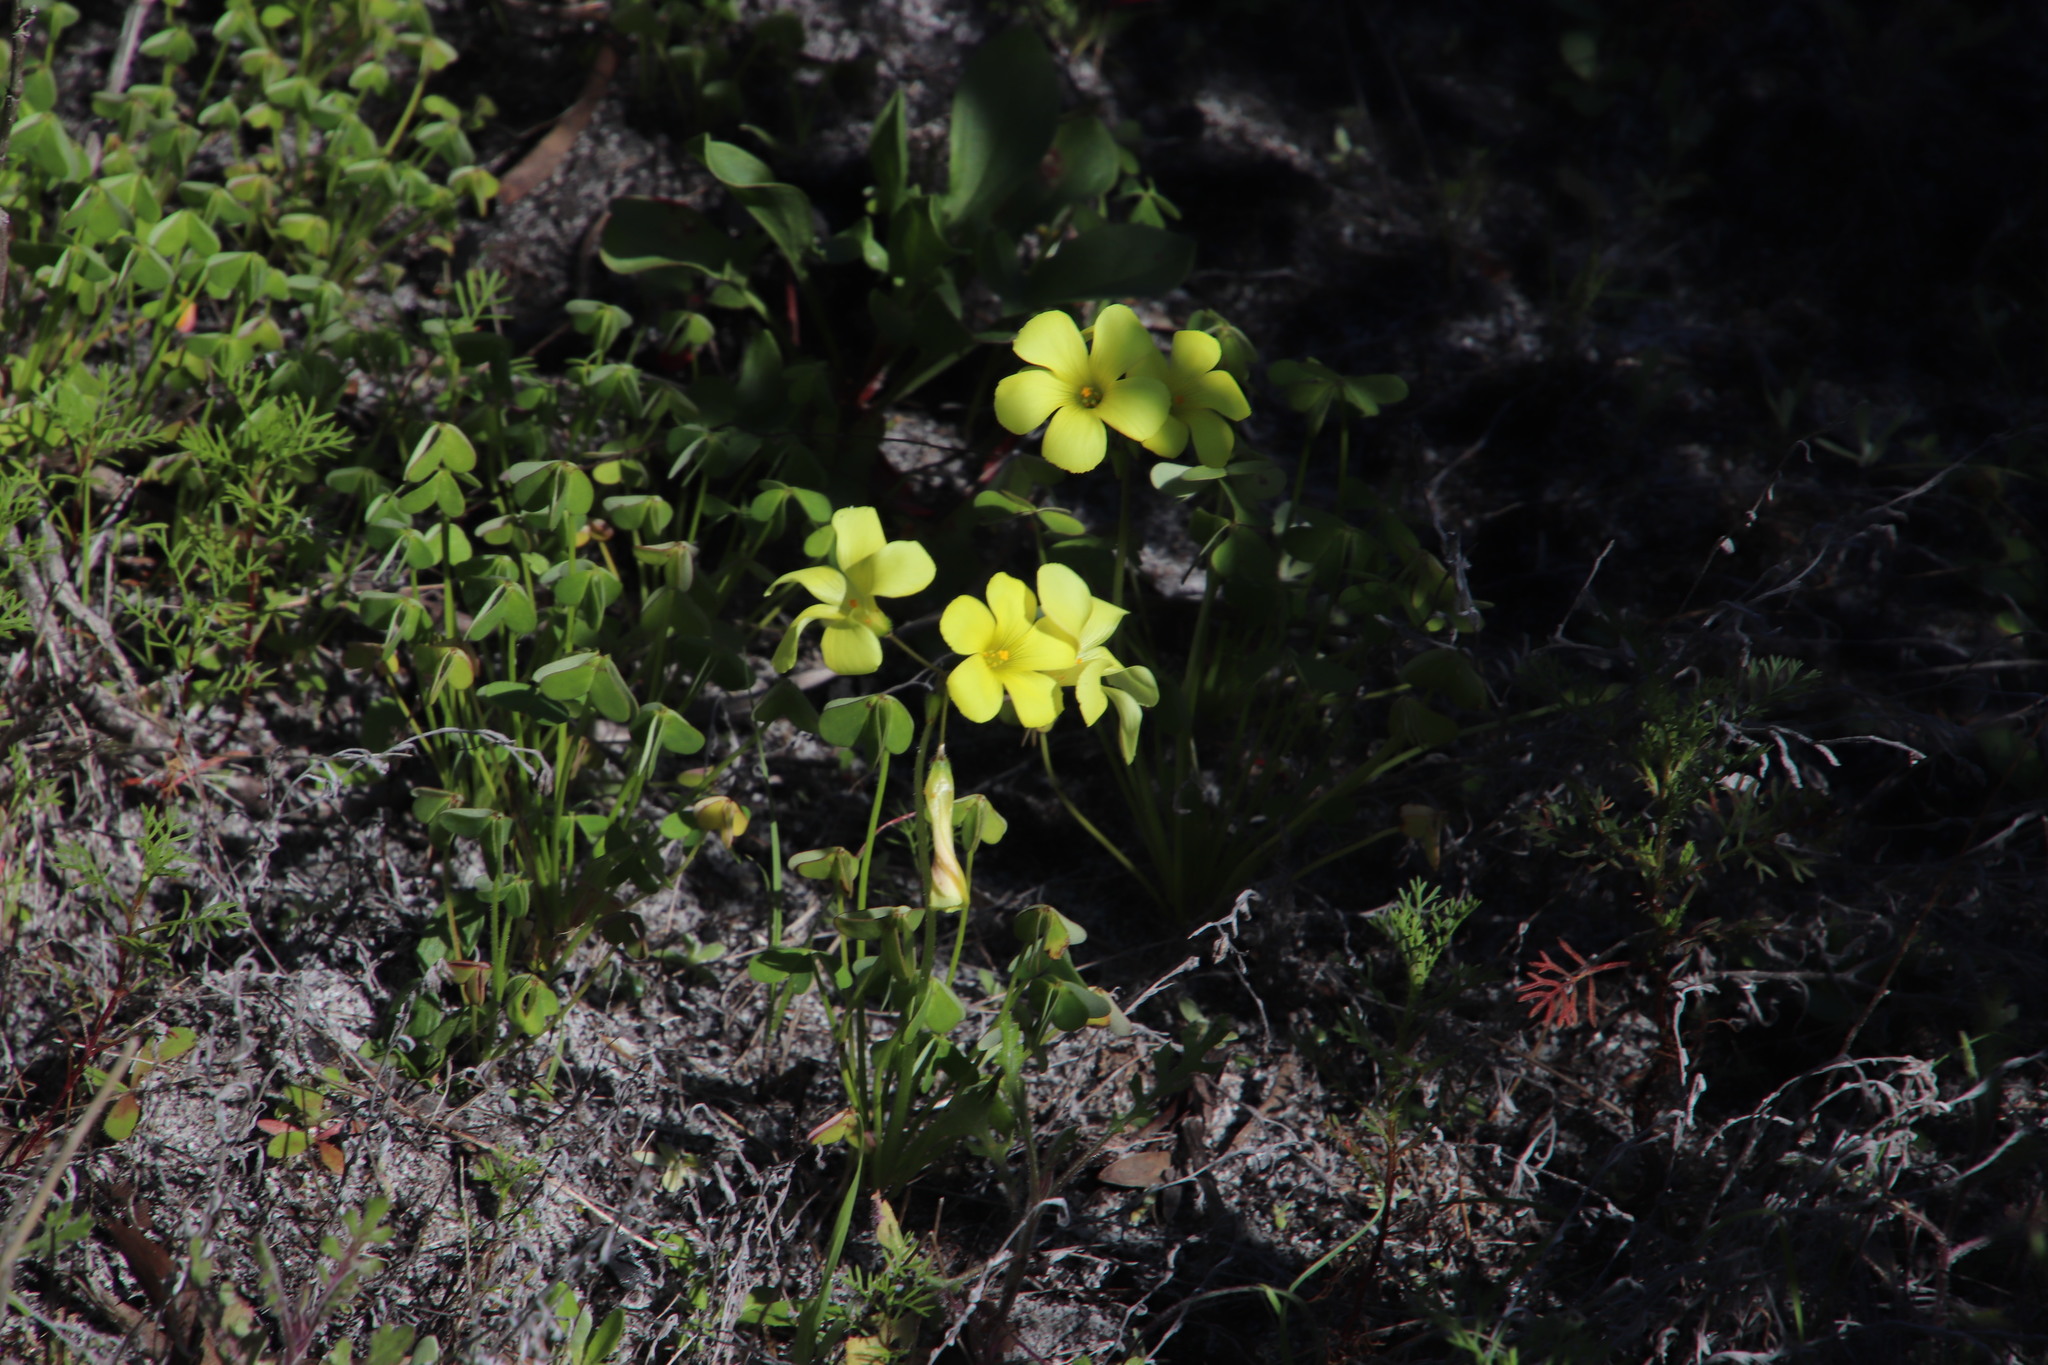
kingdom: Plantae
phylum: Tracheophyta
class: Magnoliopsida
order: Oxalidales
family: Oxalidaceae
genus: Oxalis
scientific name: Oxalis pes-caprae
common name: Bermuda-buttercup
